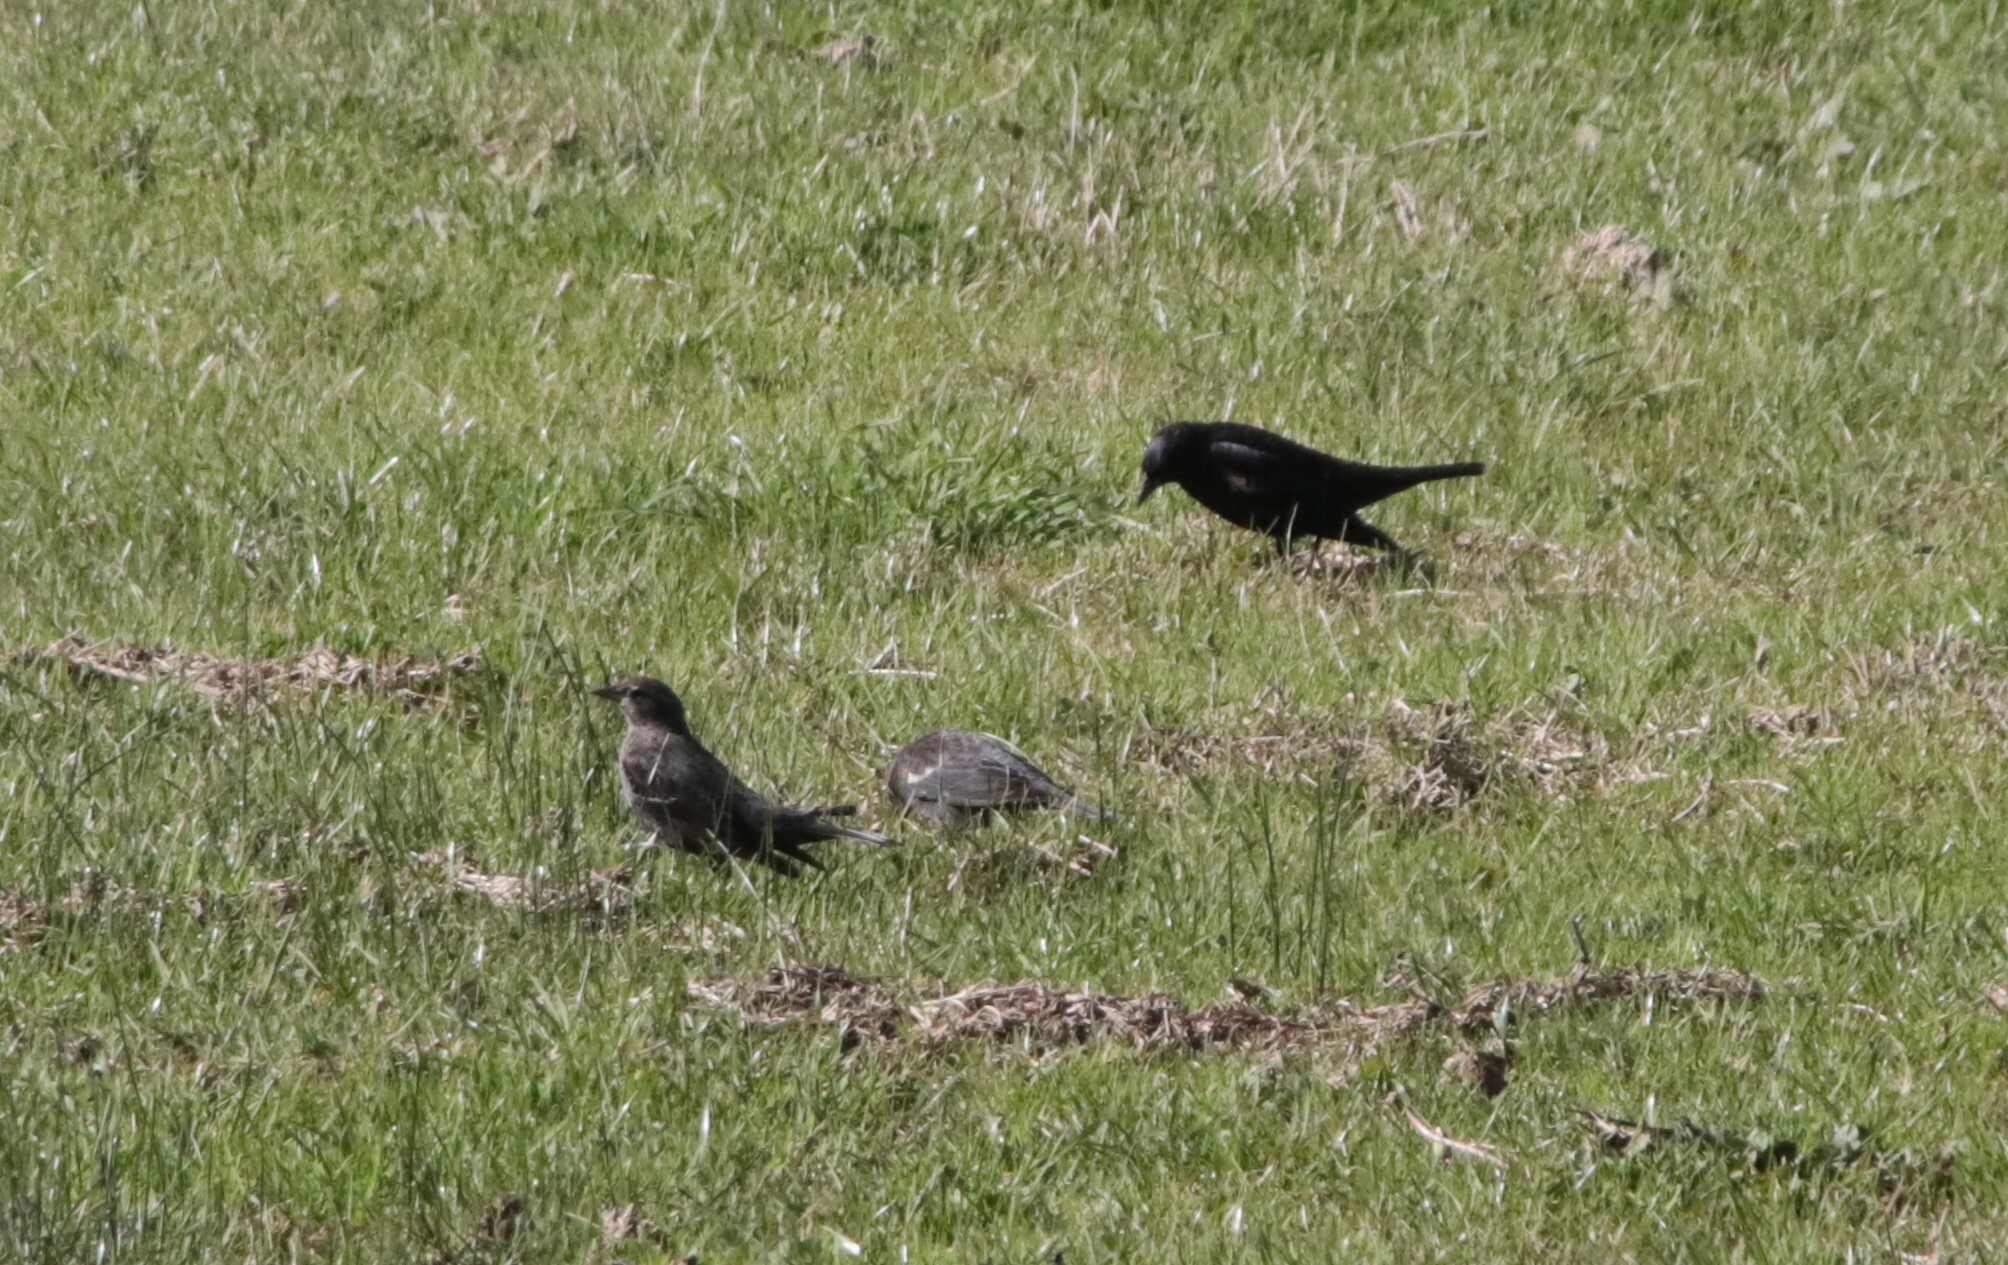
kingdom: Animalia
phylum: Chordata
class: Aves
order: Passeriformes
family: Icteridae
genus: Agelaius
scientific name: Agelaius tricolor
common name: Tricolored blackbird
